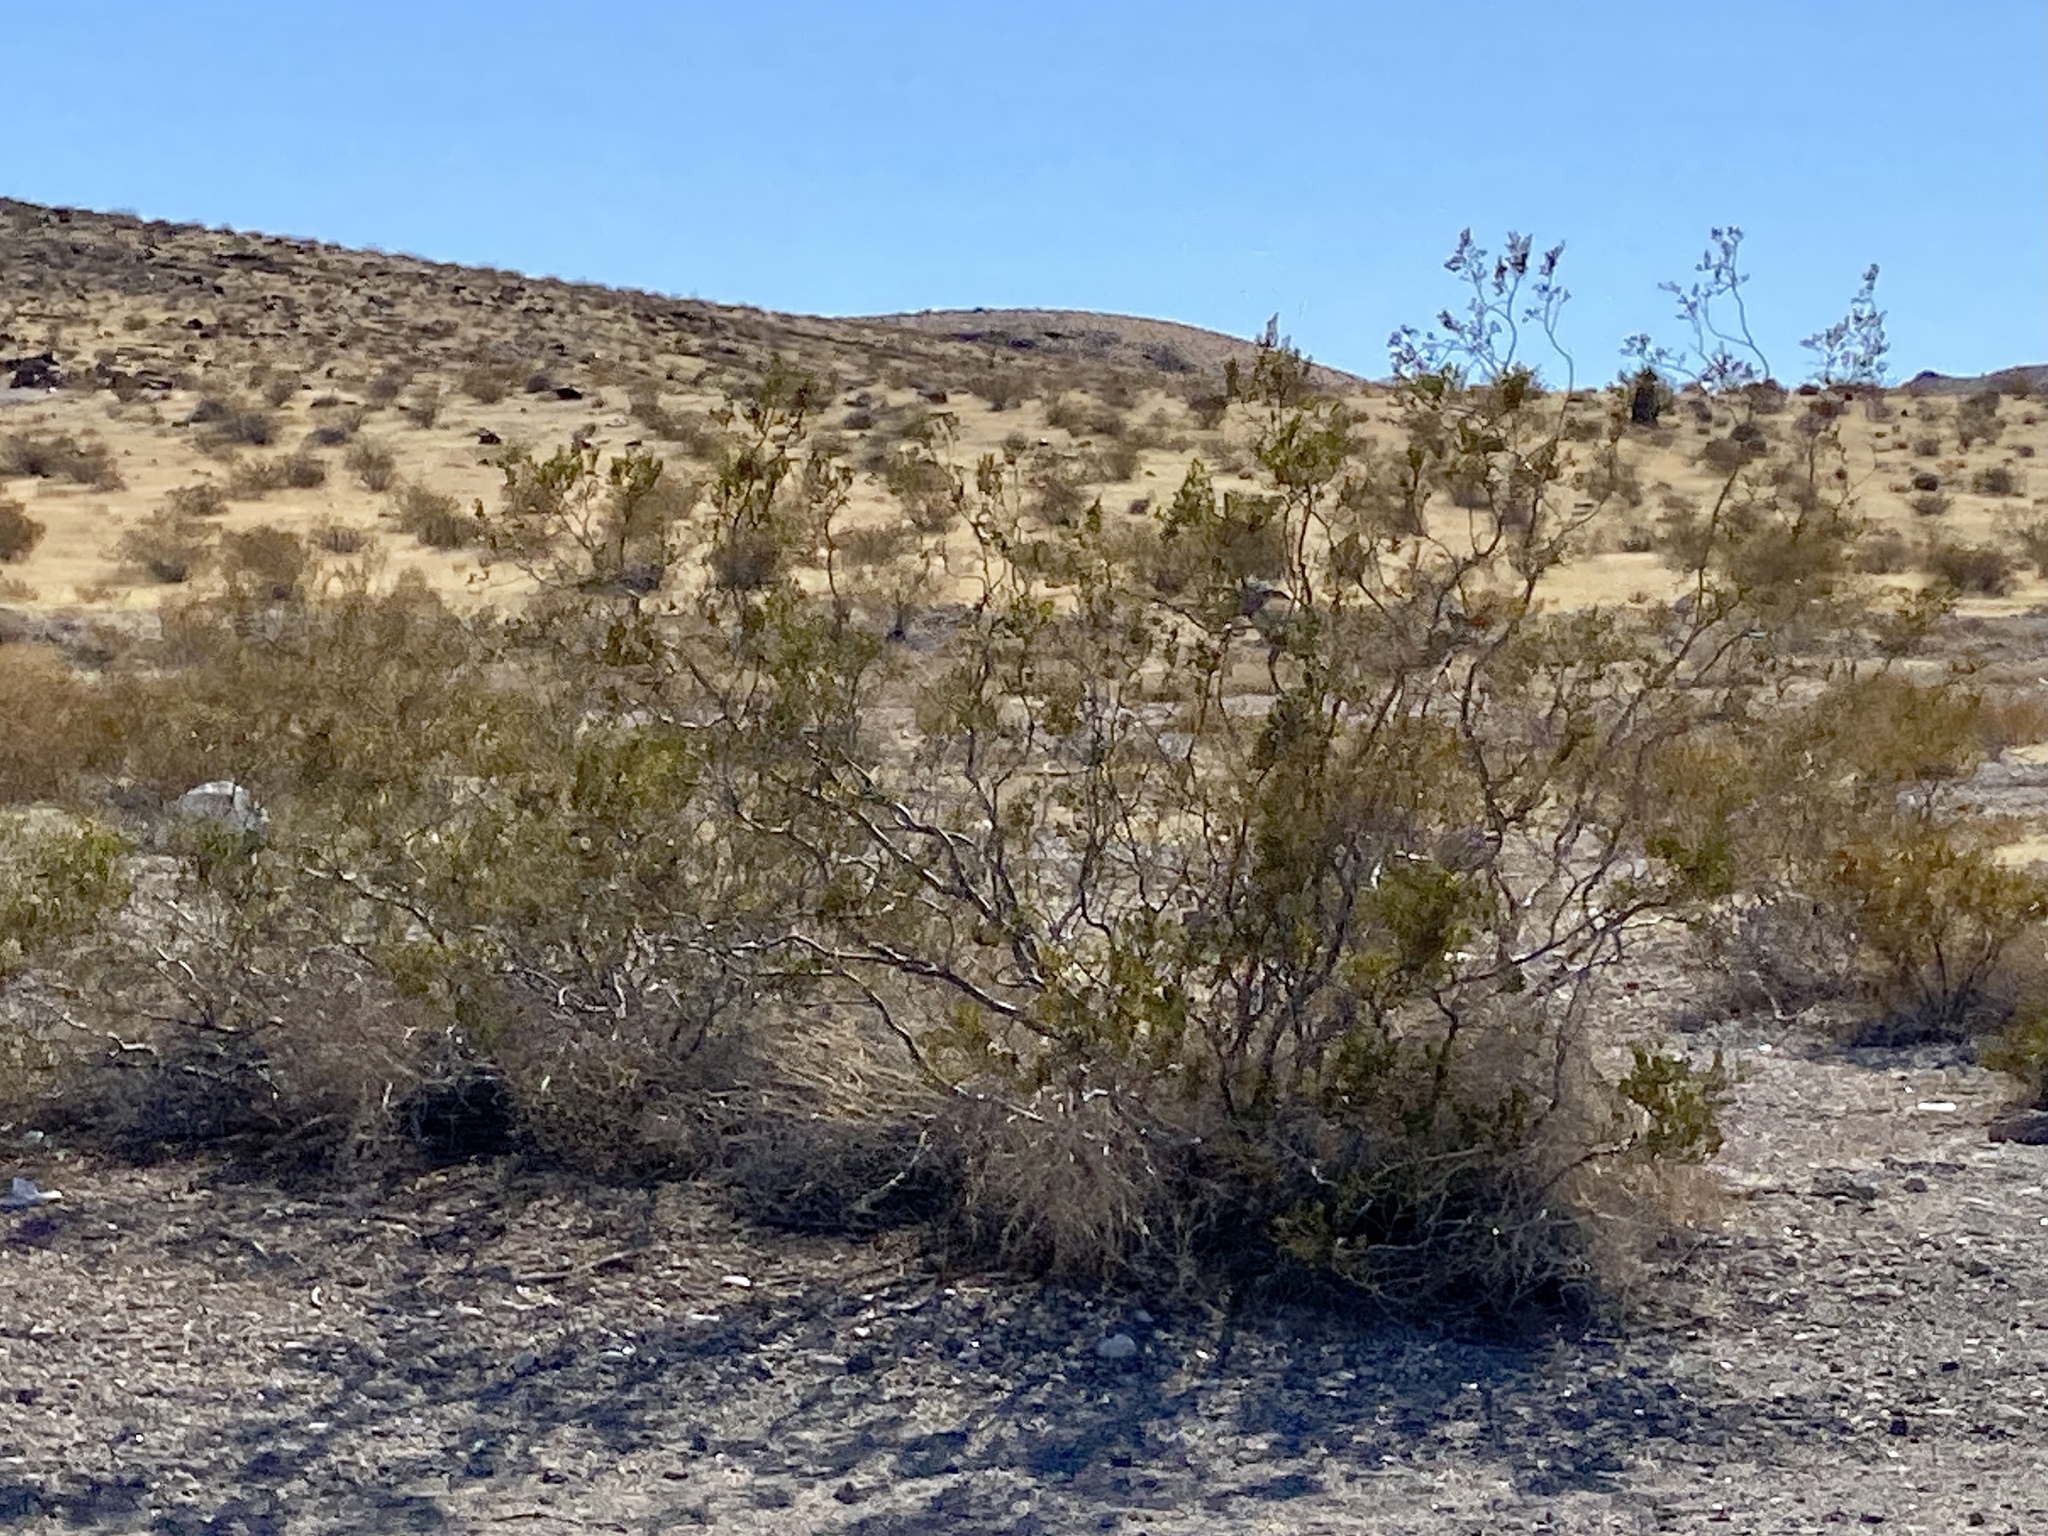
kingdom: Plantae
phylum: Tracheophyta
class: Magnoliopsida
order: Zygophyllales
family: Zygophyllaceae
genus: Larrea
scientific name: Larrea tridentata
